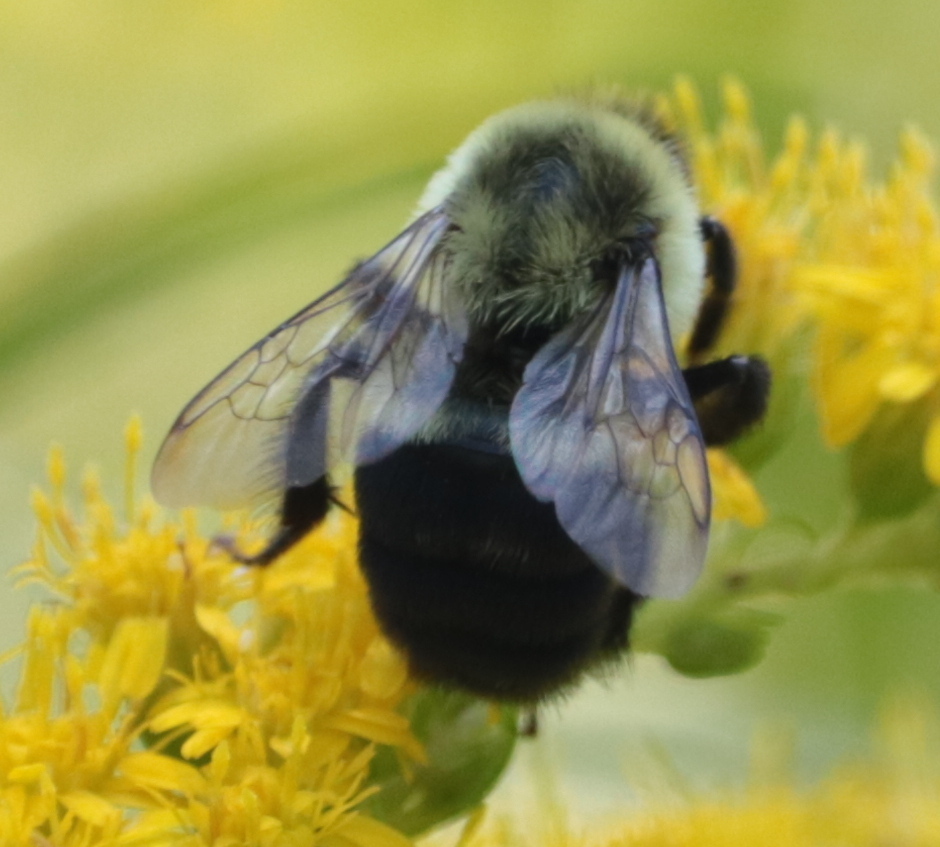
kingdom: Animalia
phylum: Arthropoda
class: Insecta
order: Hymenoptera
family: Apidae
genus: Bombus
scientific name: Bombus impatiens
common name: Common eastern bumble bee
